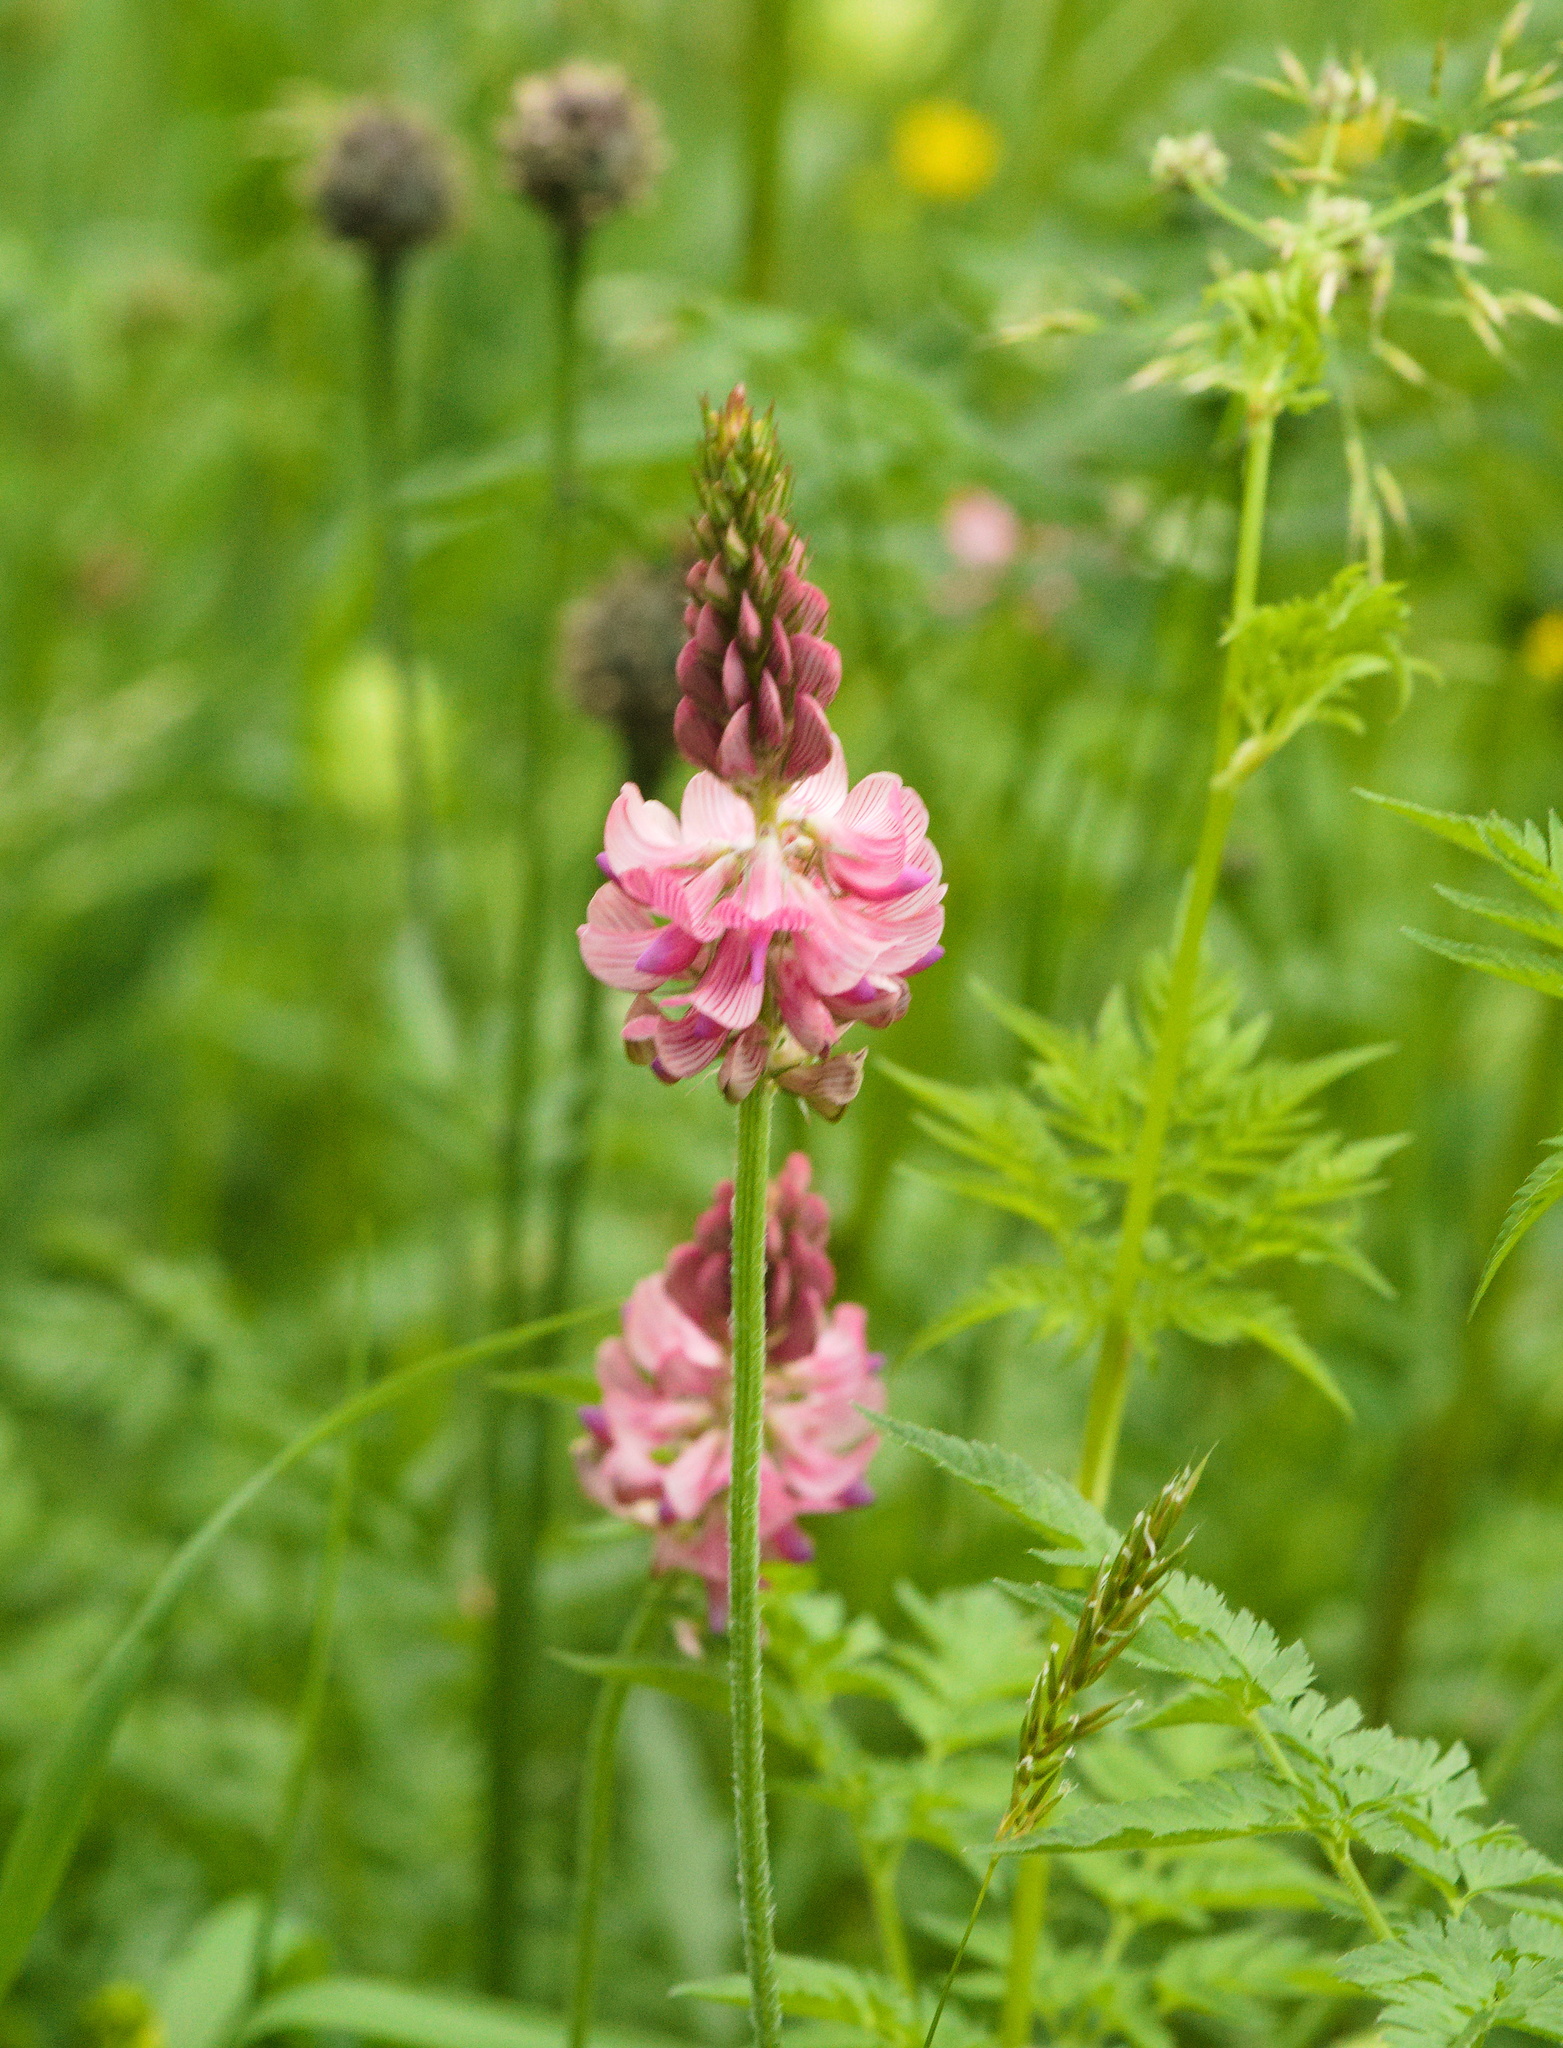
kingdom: Plantae
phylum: Tracheophyta
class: Magnoliopsida
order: Fabales
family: Fabaceae
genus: Onobrychis
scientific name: Onobrychis viciifolia
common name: Sainfoin
